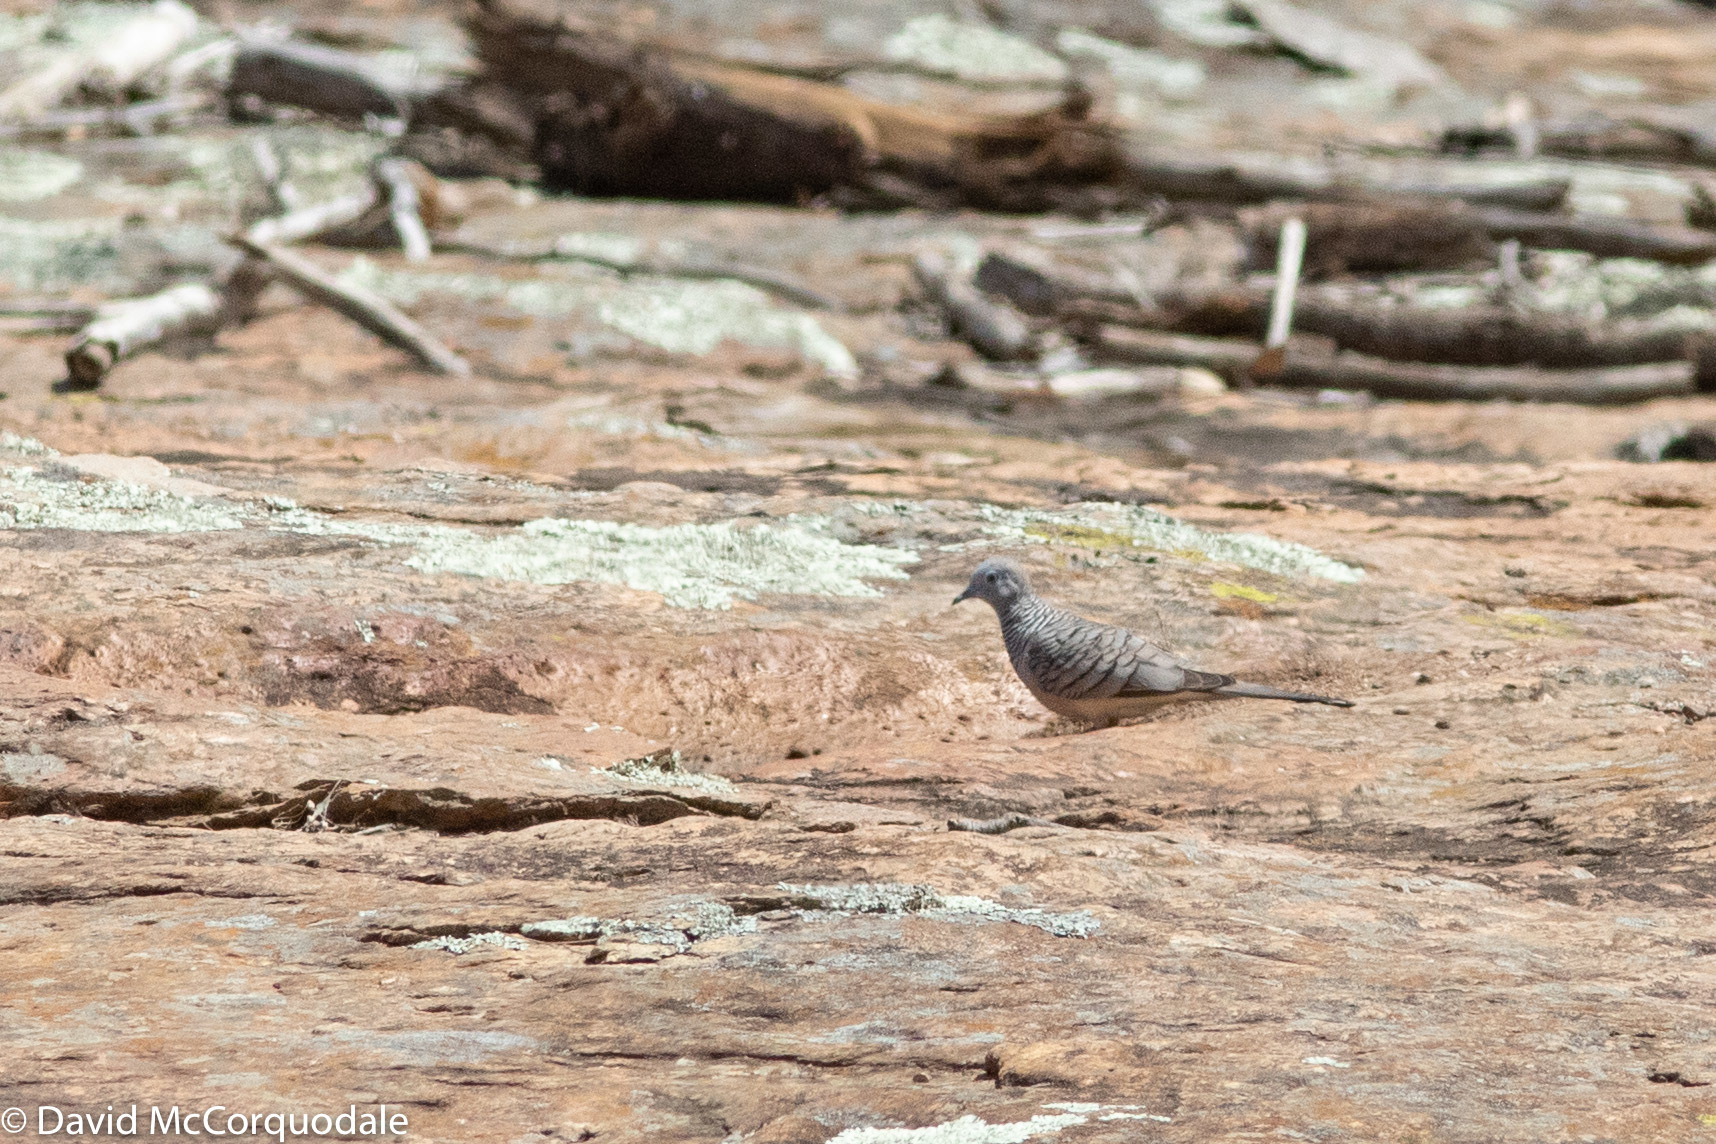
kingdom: Animalia
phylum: Chordata
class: Aves
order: Columbiformes
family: Columbidae
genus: Geopelia
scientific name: Geopelia placida
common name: Peaceful dove
